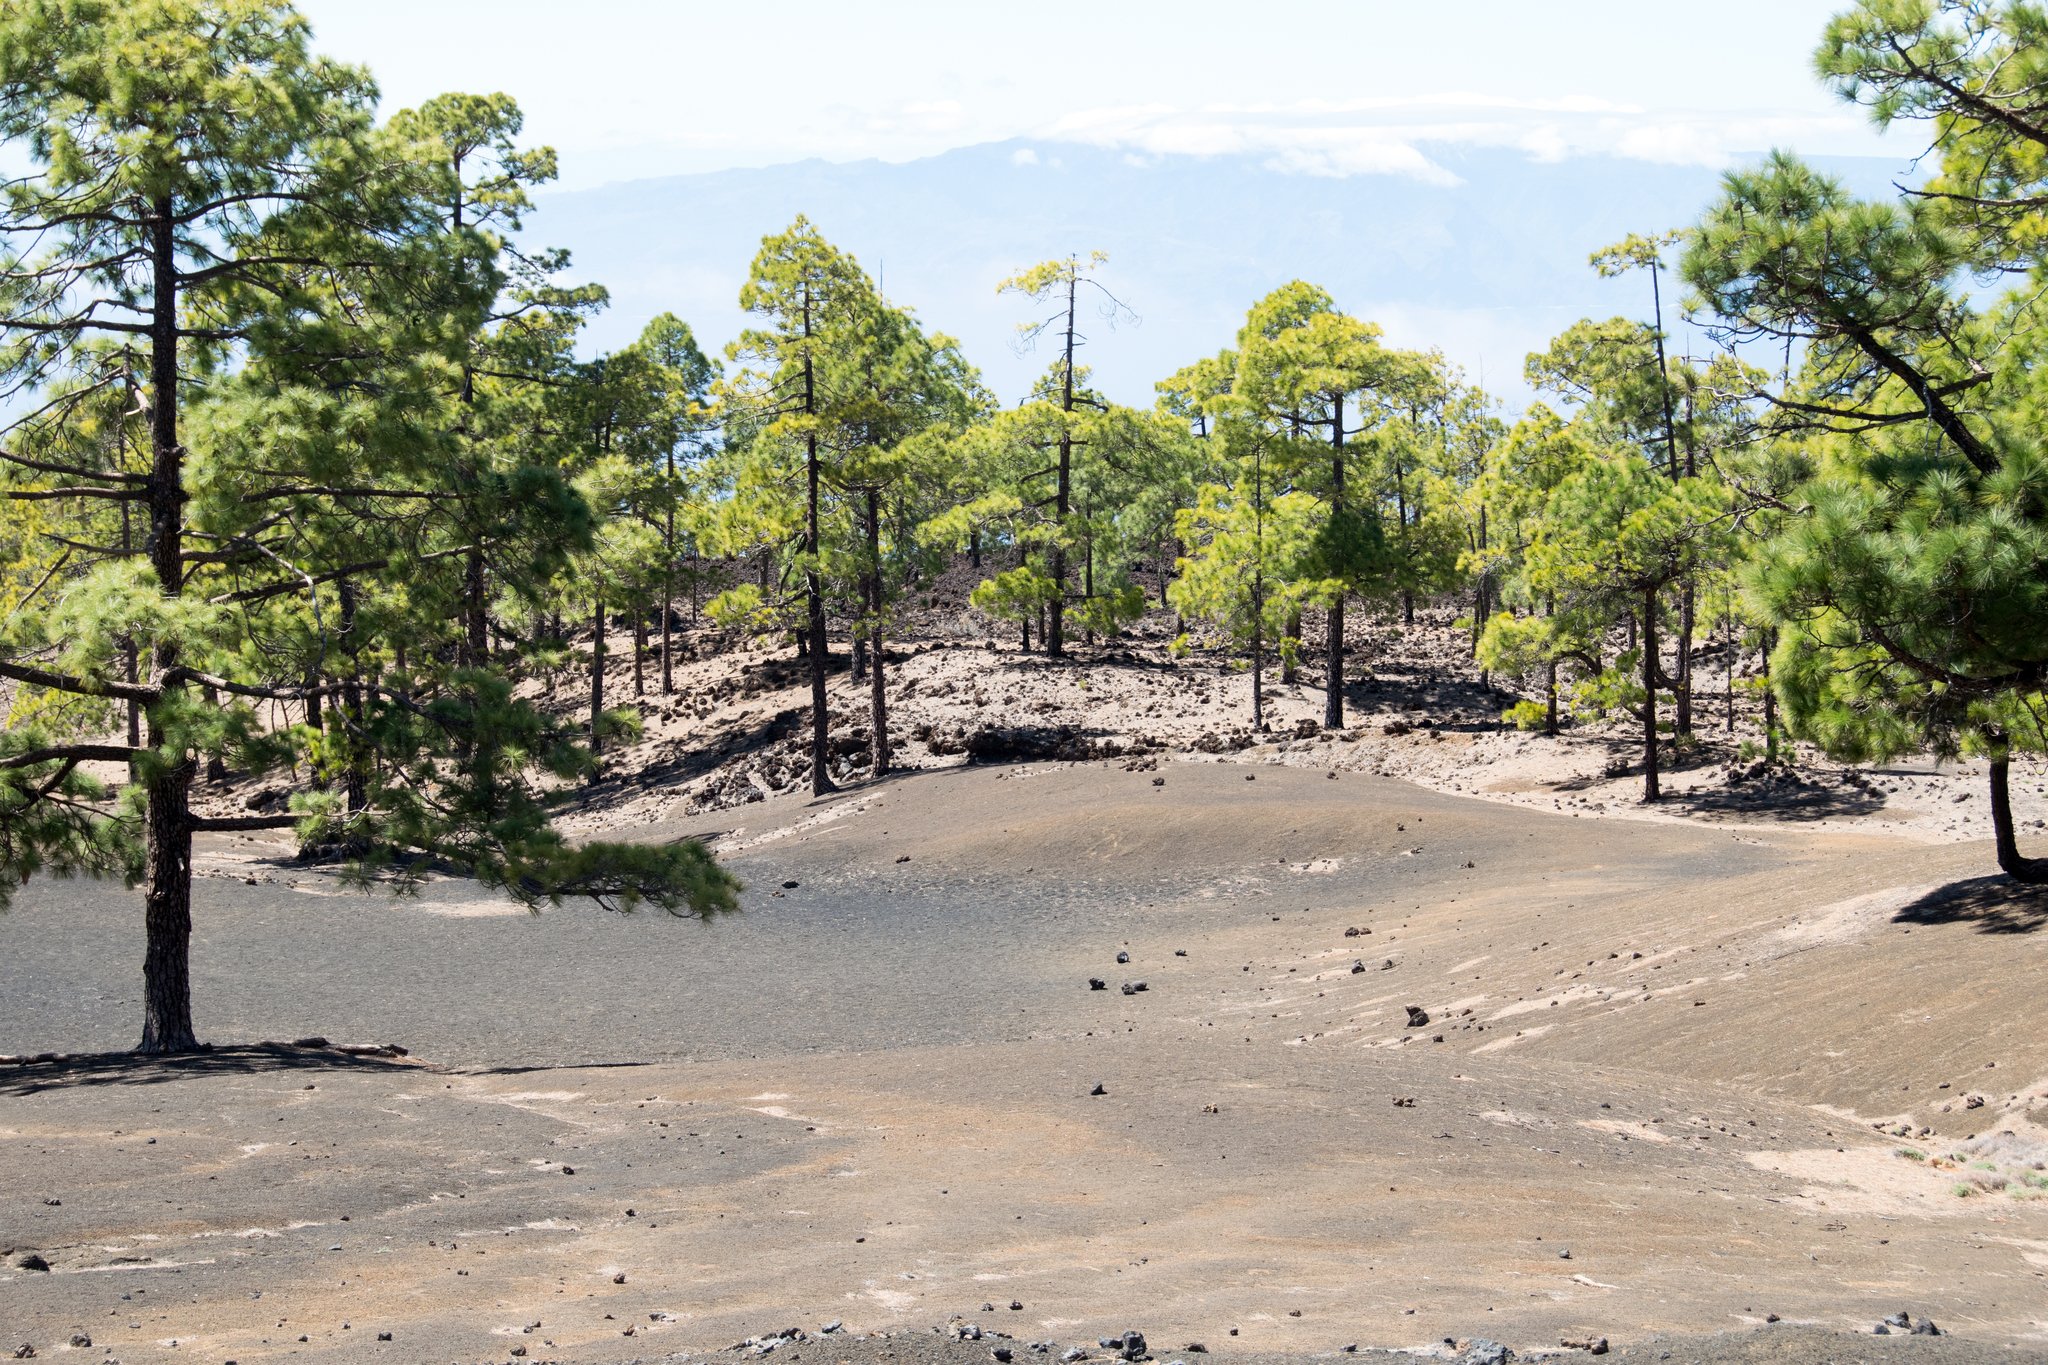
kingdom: Plantae
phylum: Tracheophyta
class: Pinopsida
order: Pinales
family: Pinaceae
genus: Pinus
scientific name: Pinus canariensis
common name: Canary islands pine
